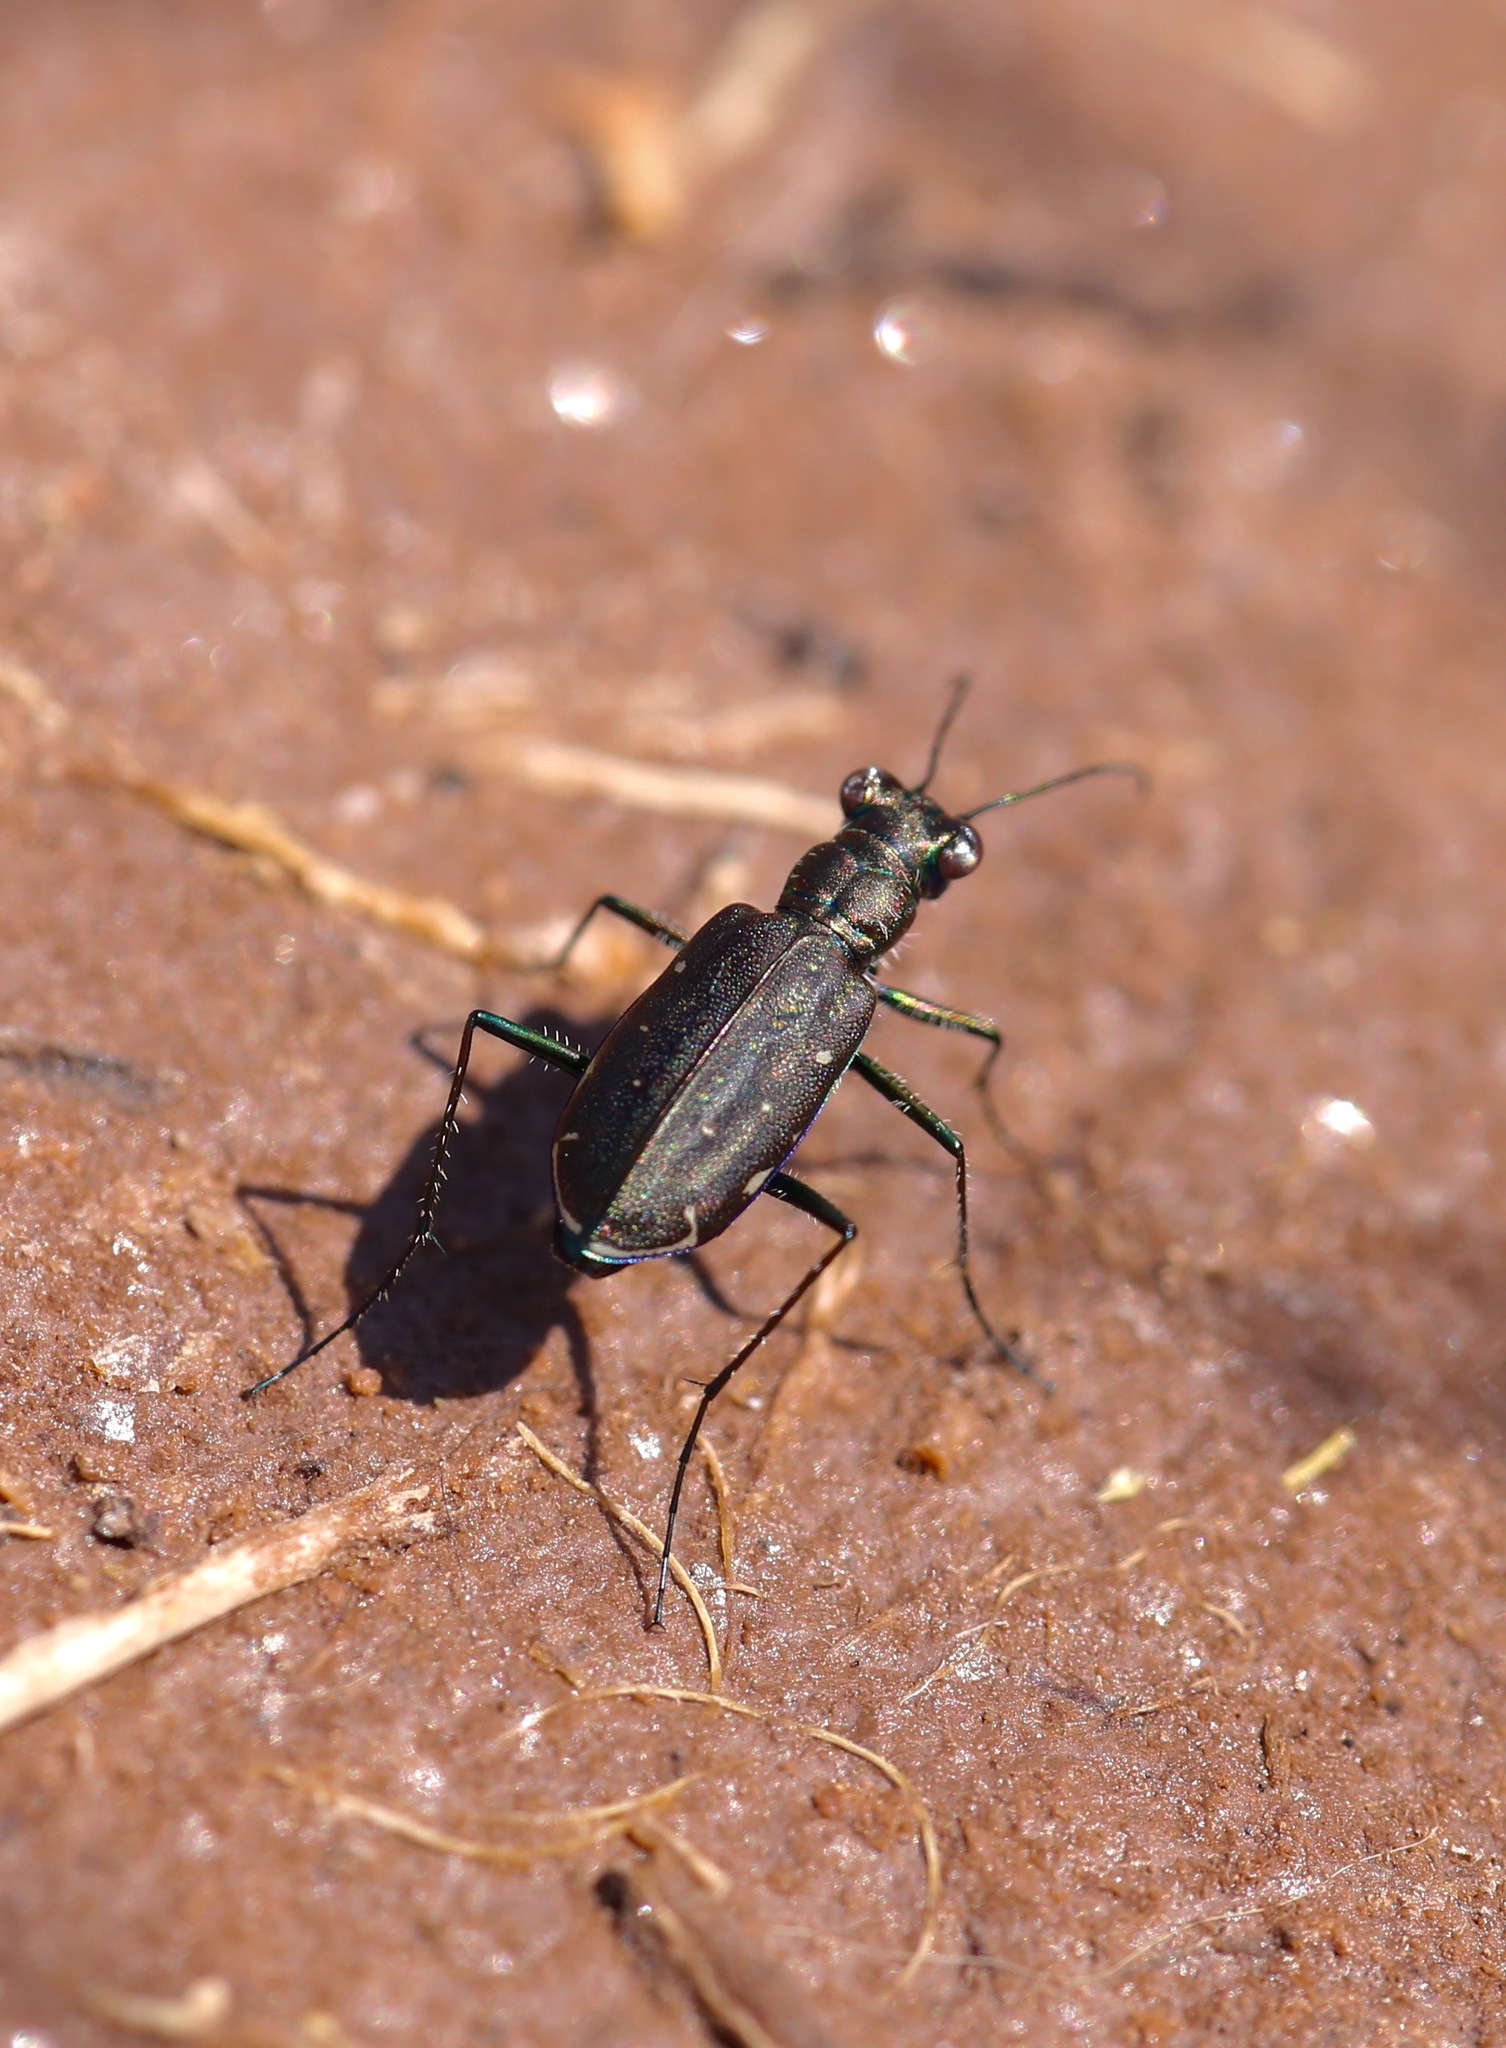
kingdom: Animalia
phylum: Arthropoda
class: Insecta
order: Coleoptera
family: Carabidae
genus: Cicindela
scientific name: Cicindela punctulata
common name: Punctured tiger beetle
